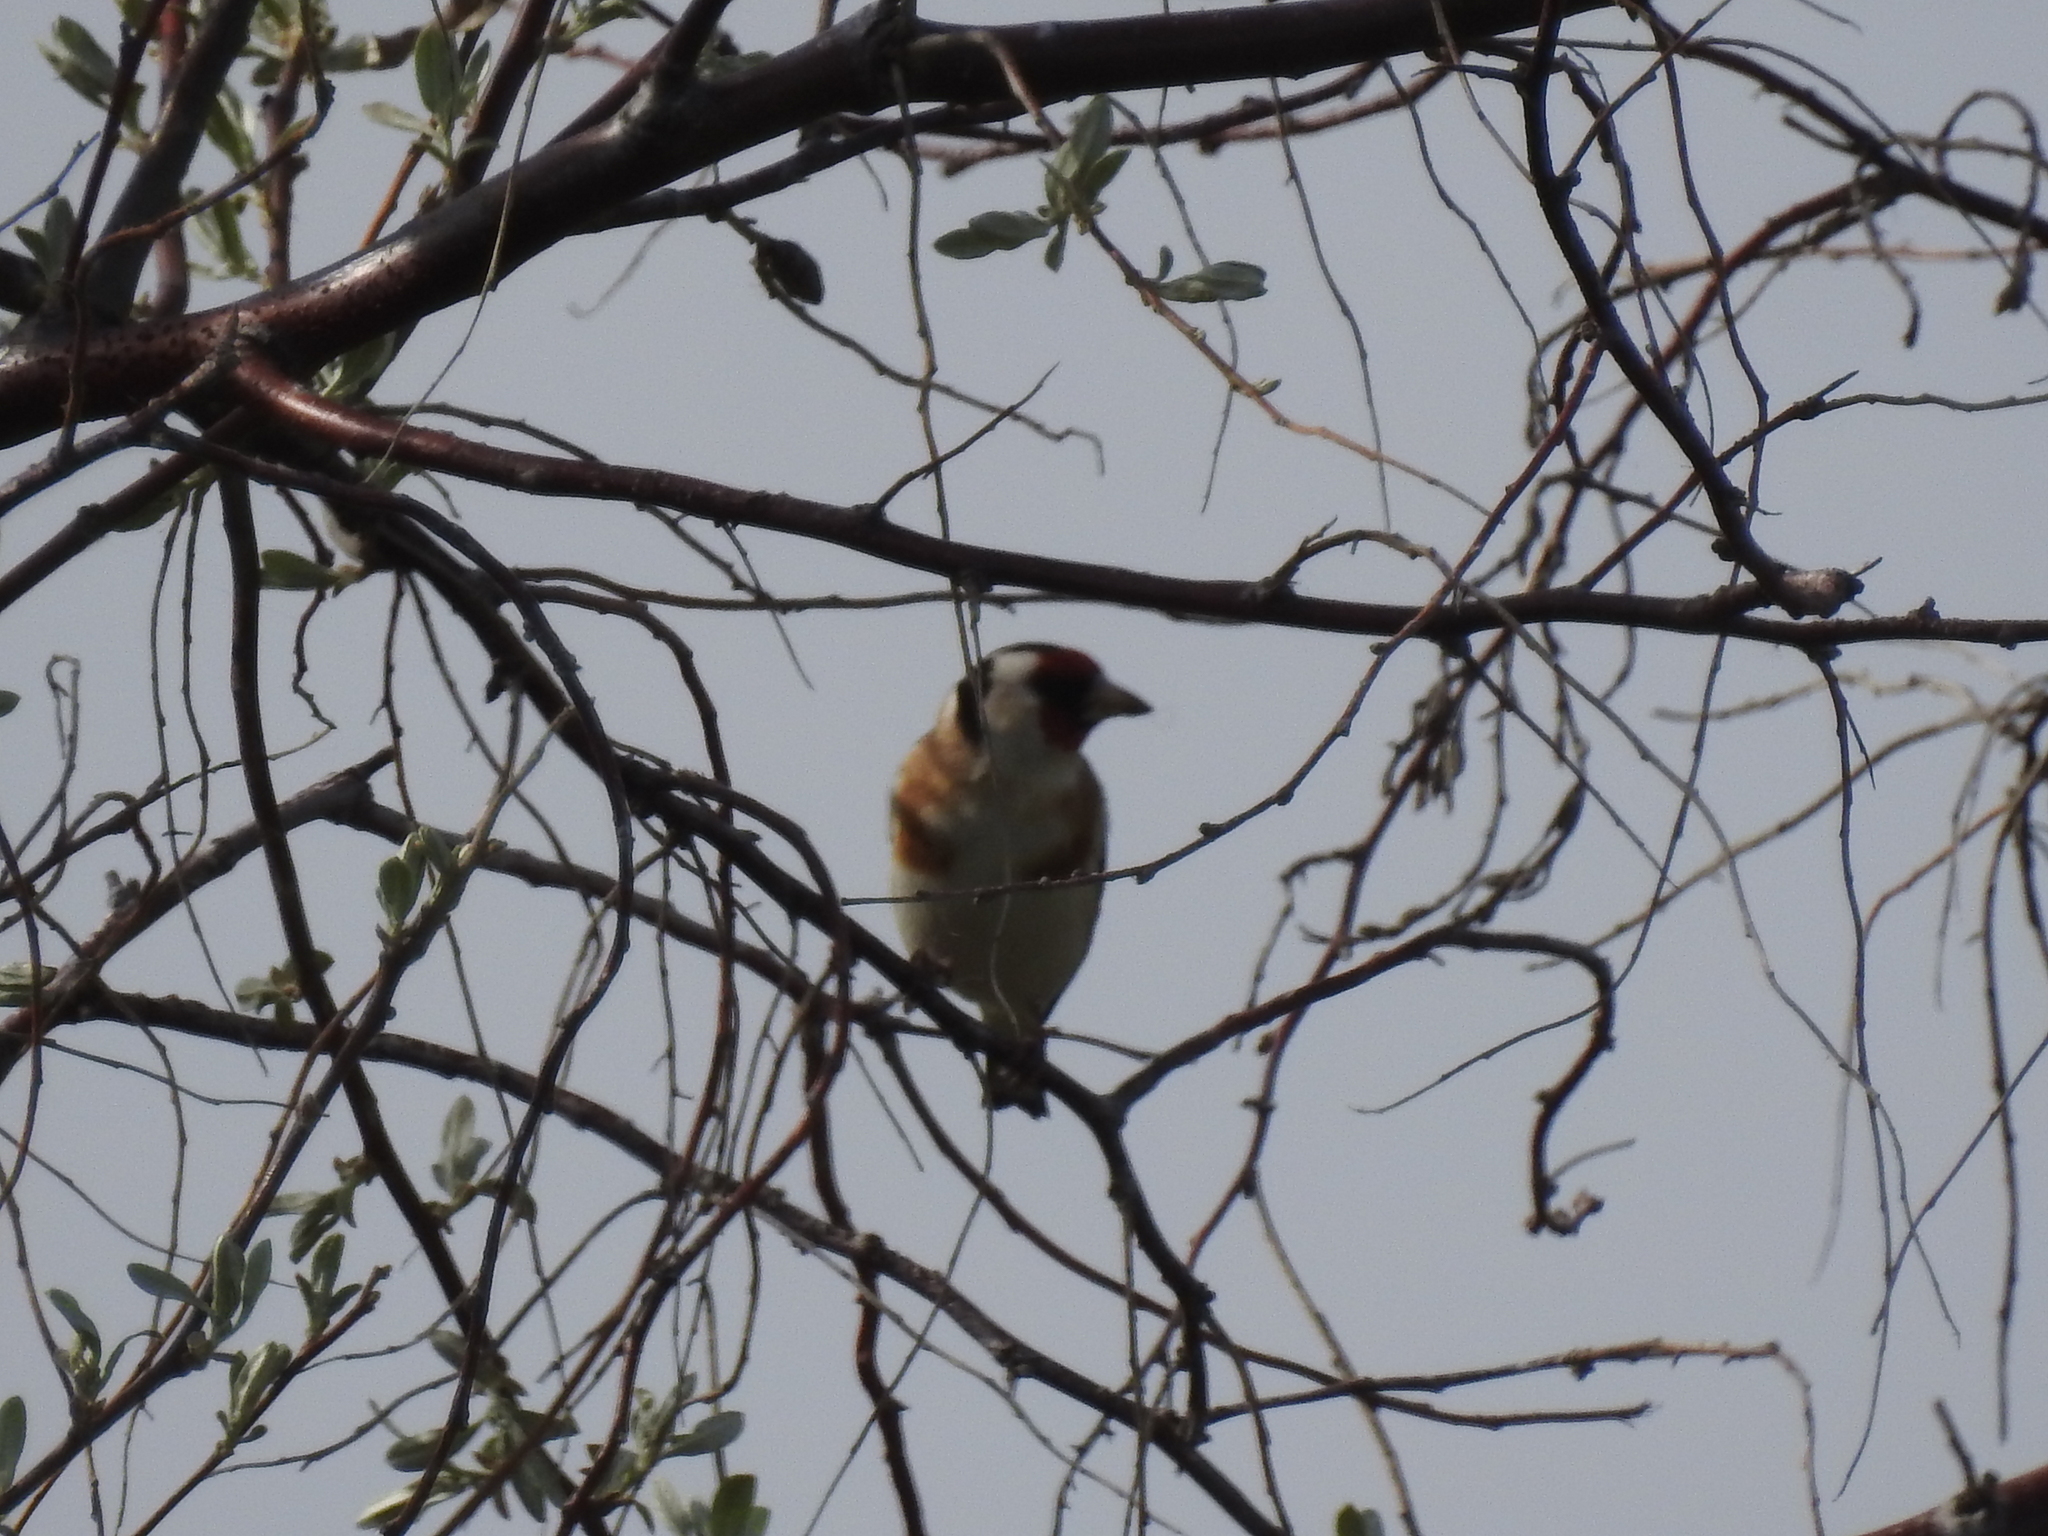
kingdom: Animalia
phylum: Chordata
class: Aves
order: Passeriformes
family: Fringillidae
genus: Carduelis
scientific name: Carduelis carduelis
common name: European goldfinch
